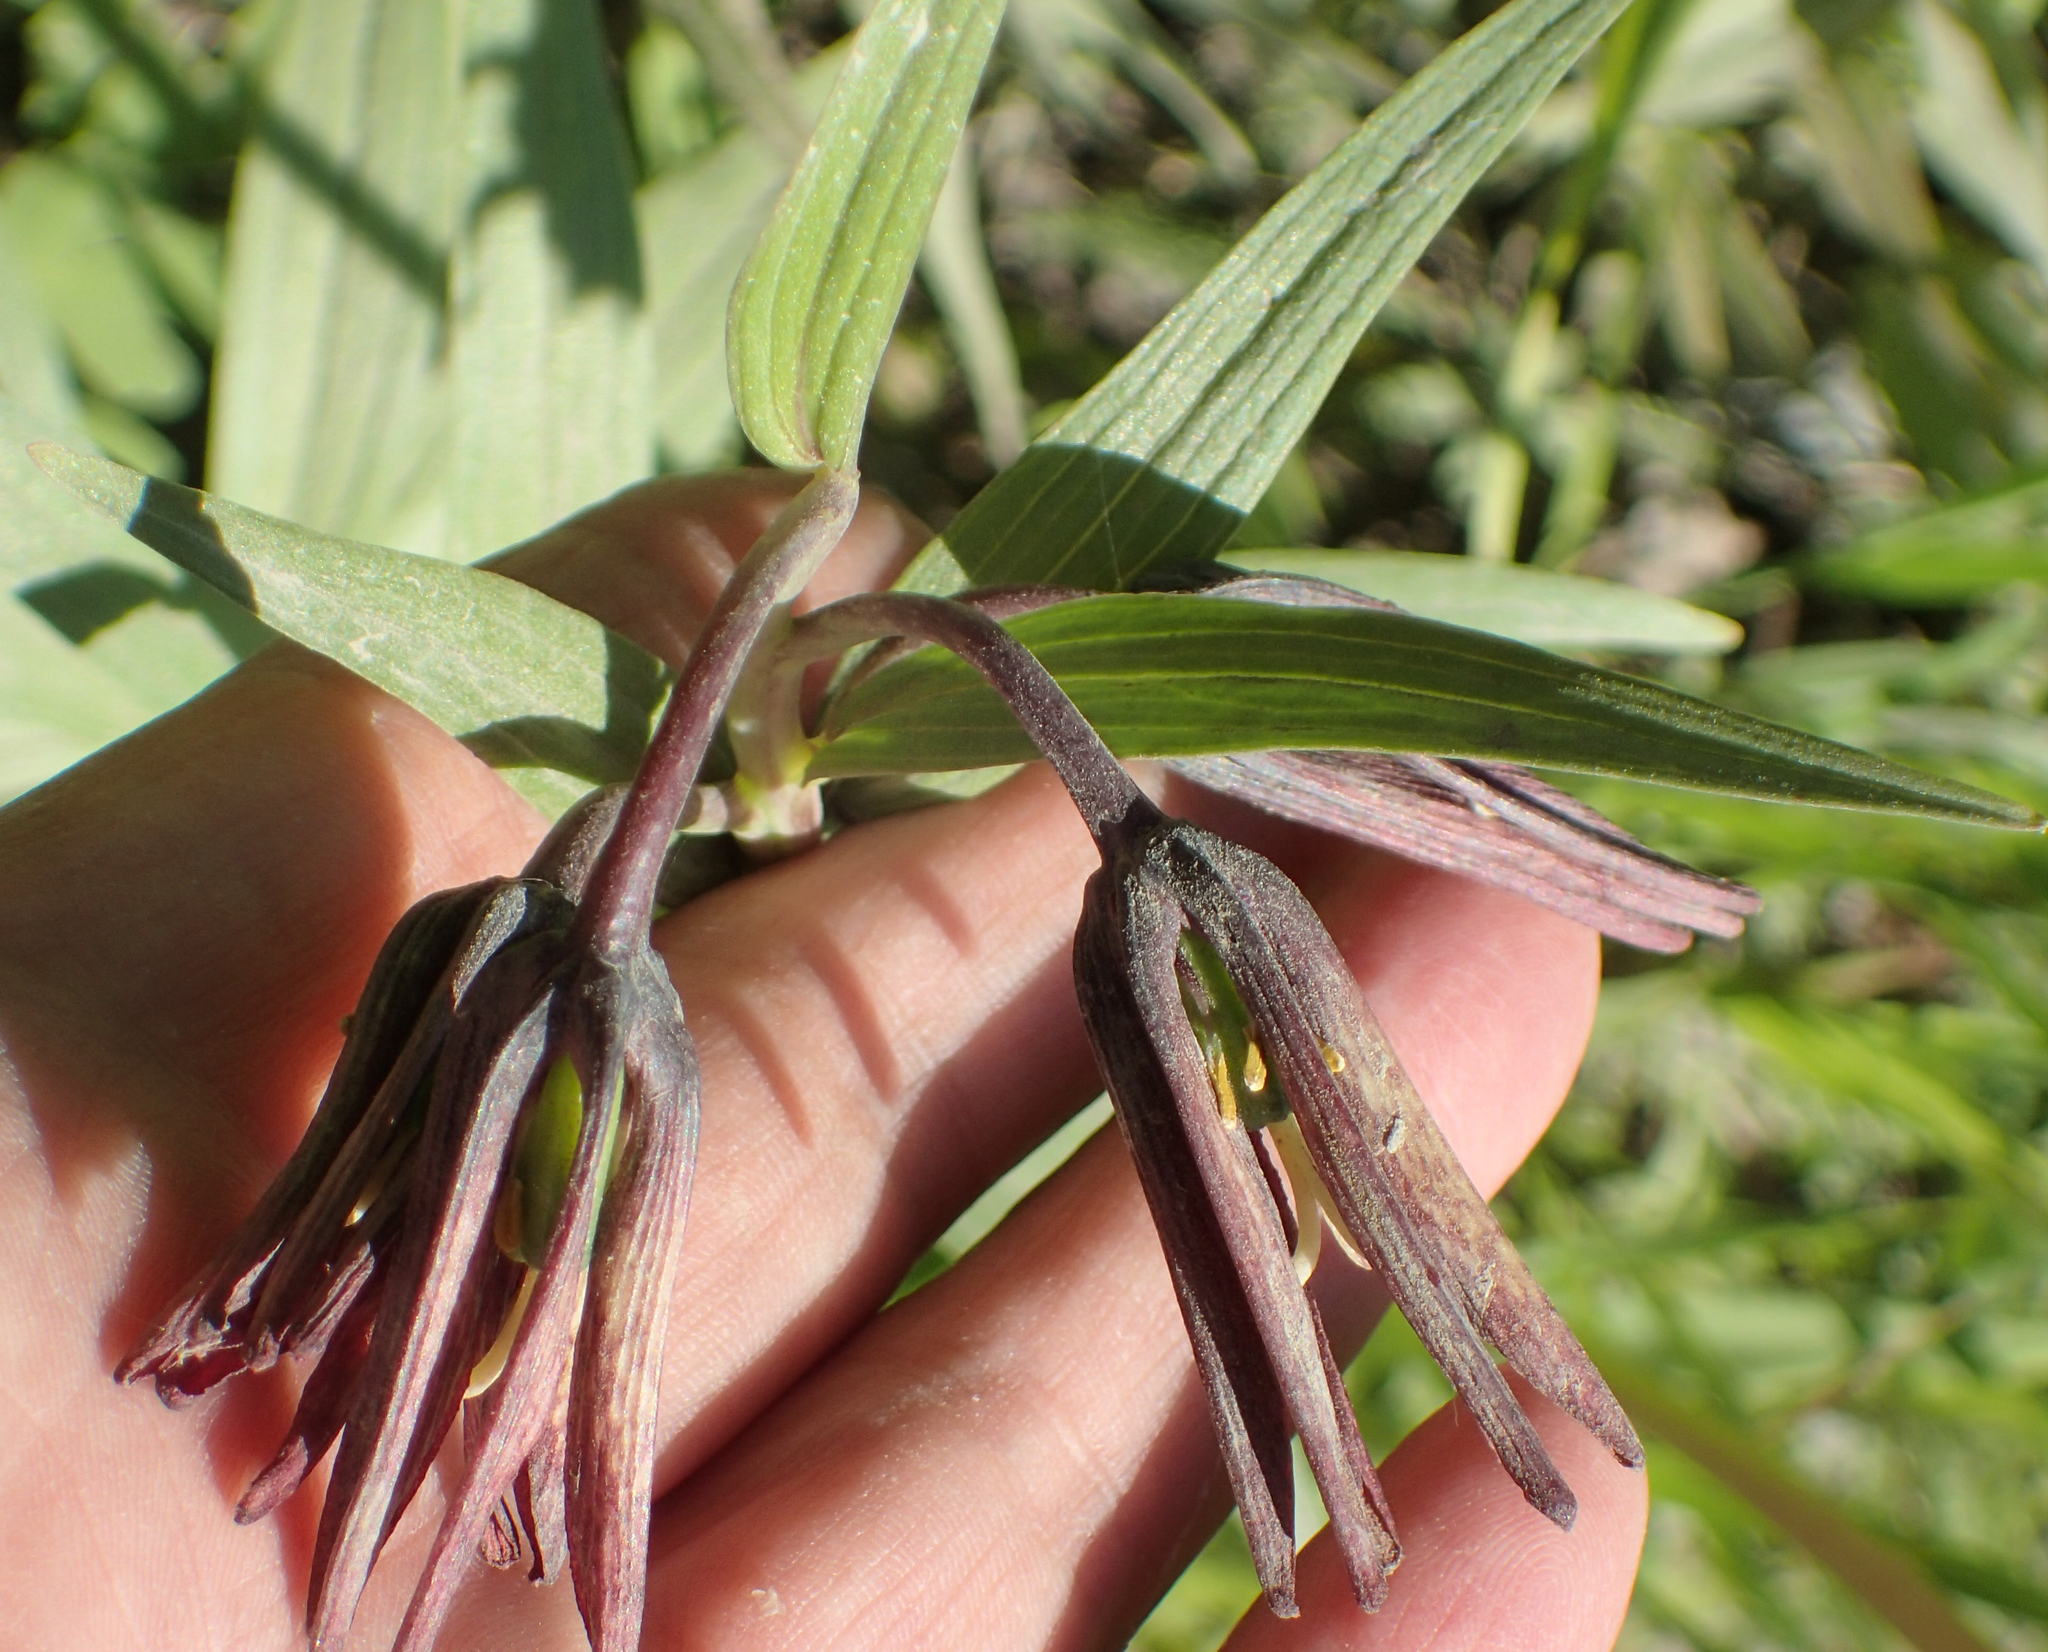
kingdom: Plantae
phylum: Tracheophyta
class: Liliopsida
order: Liliales
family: Liliaceae
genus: Fritillaria
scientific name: Fritillaria camschatcensis
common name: Kamchatka fritillary
